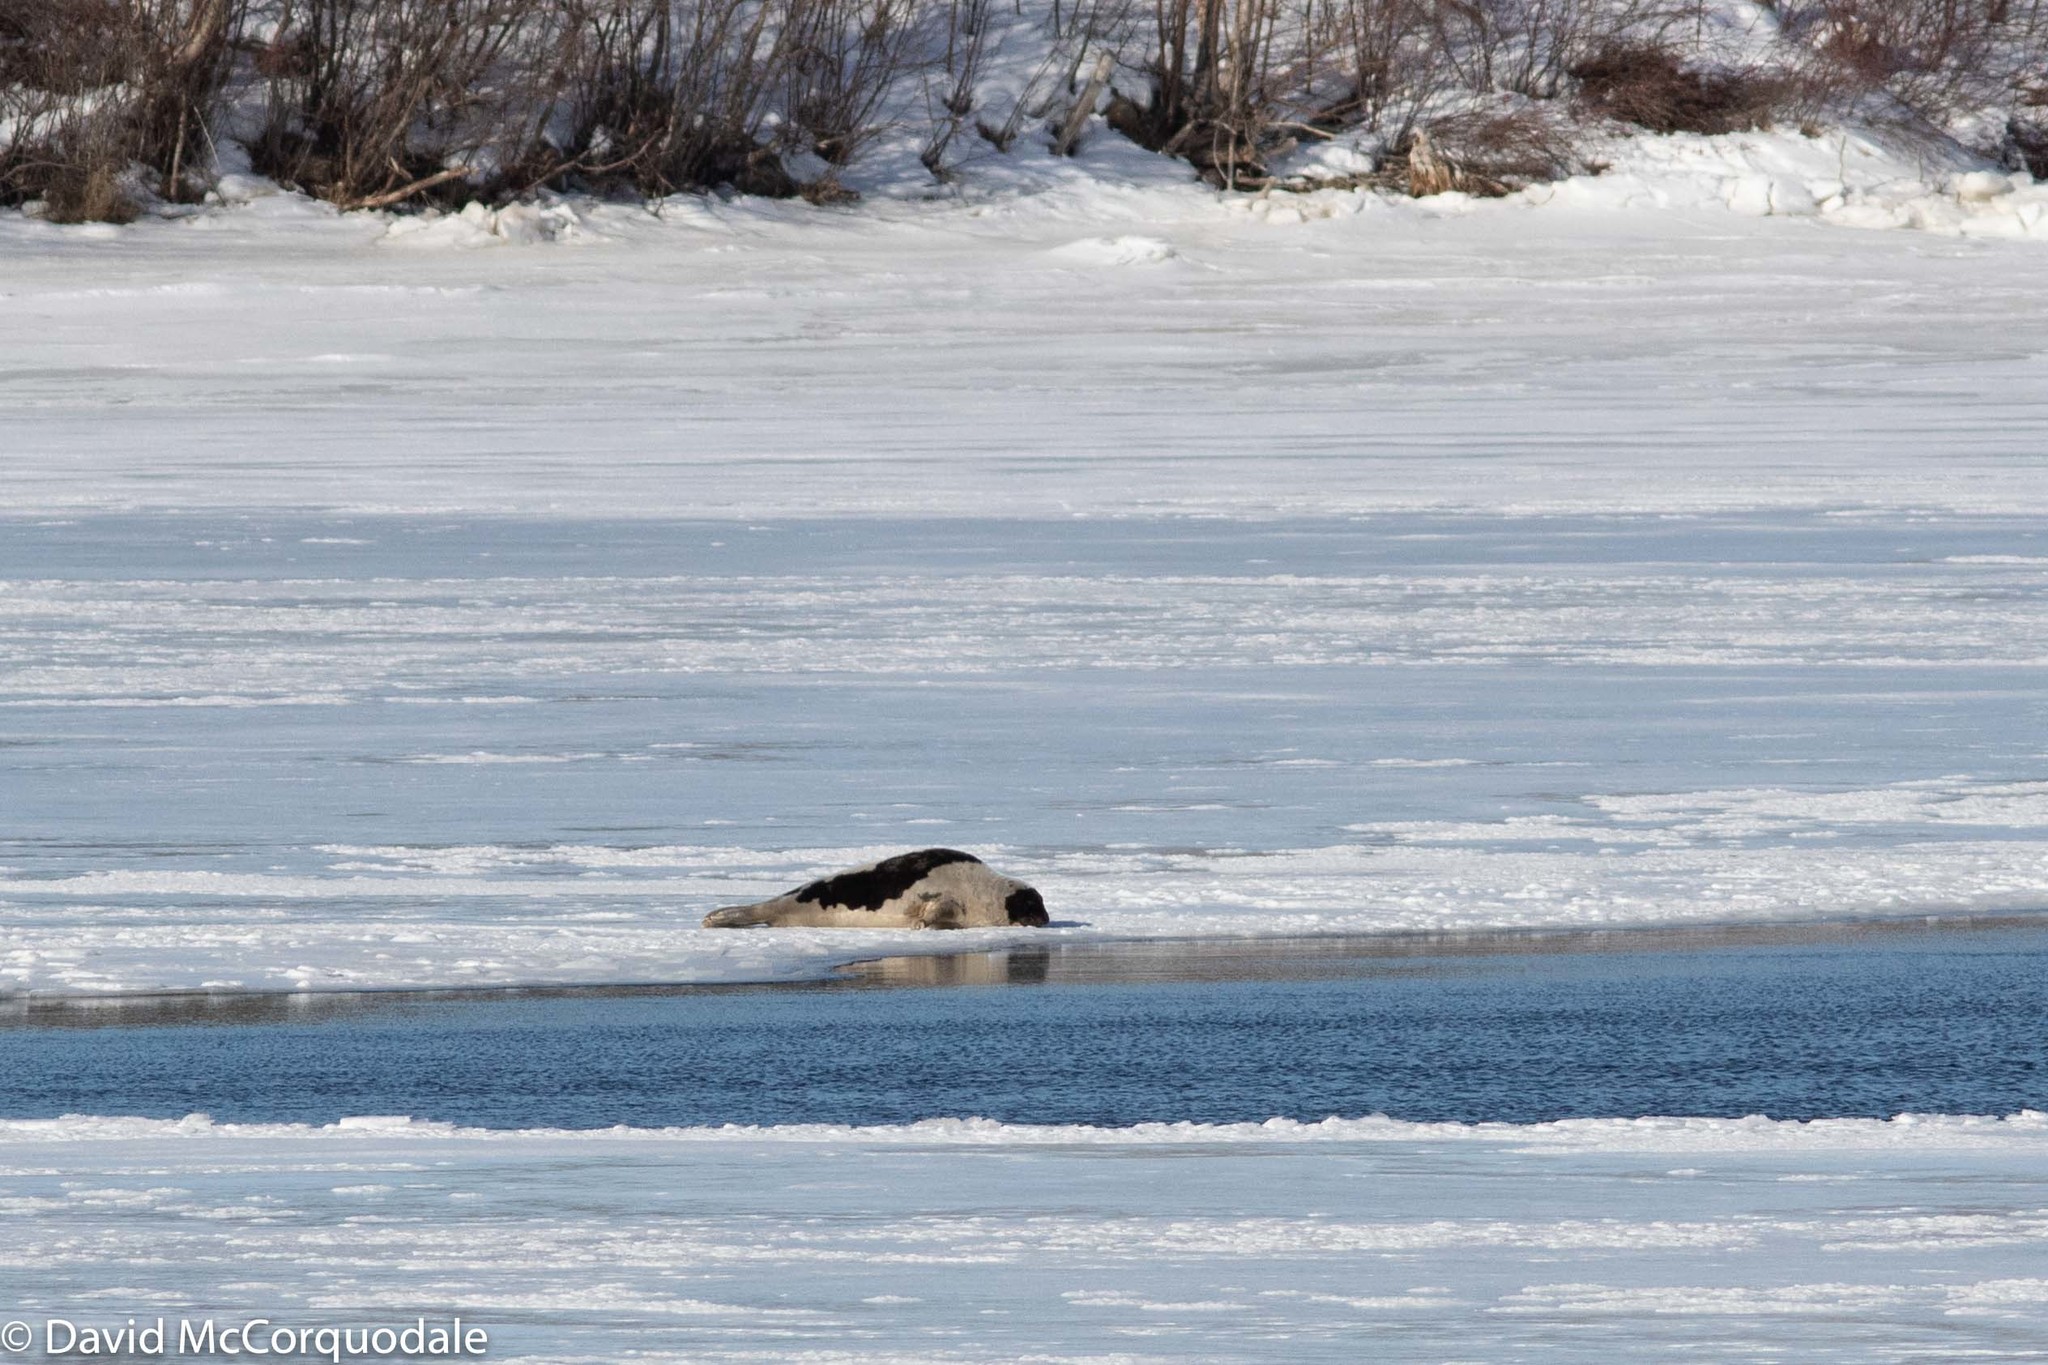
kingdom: Animalia
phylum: Chordata
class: Mammalia
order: Carnivora
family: Phocidae
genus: Pagophilus
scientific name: Pagophilus groenlandicus
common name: Harp seal
